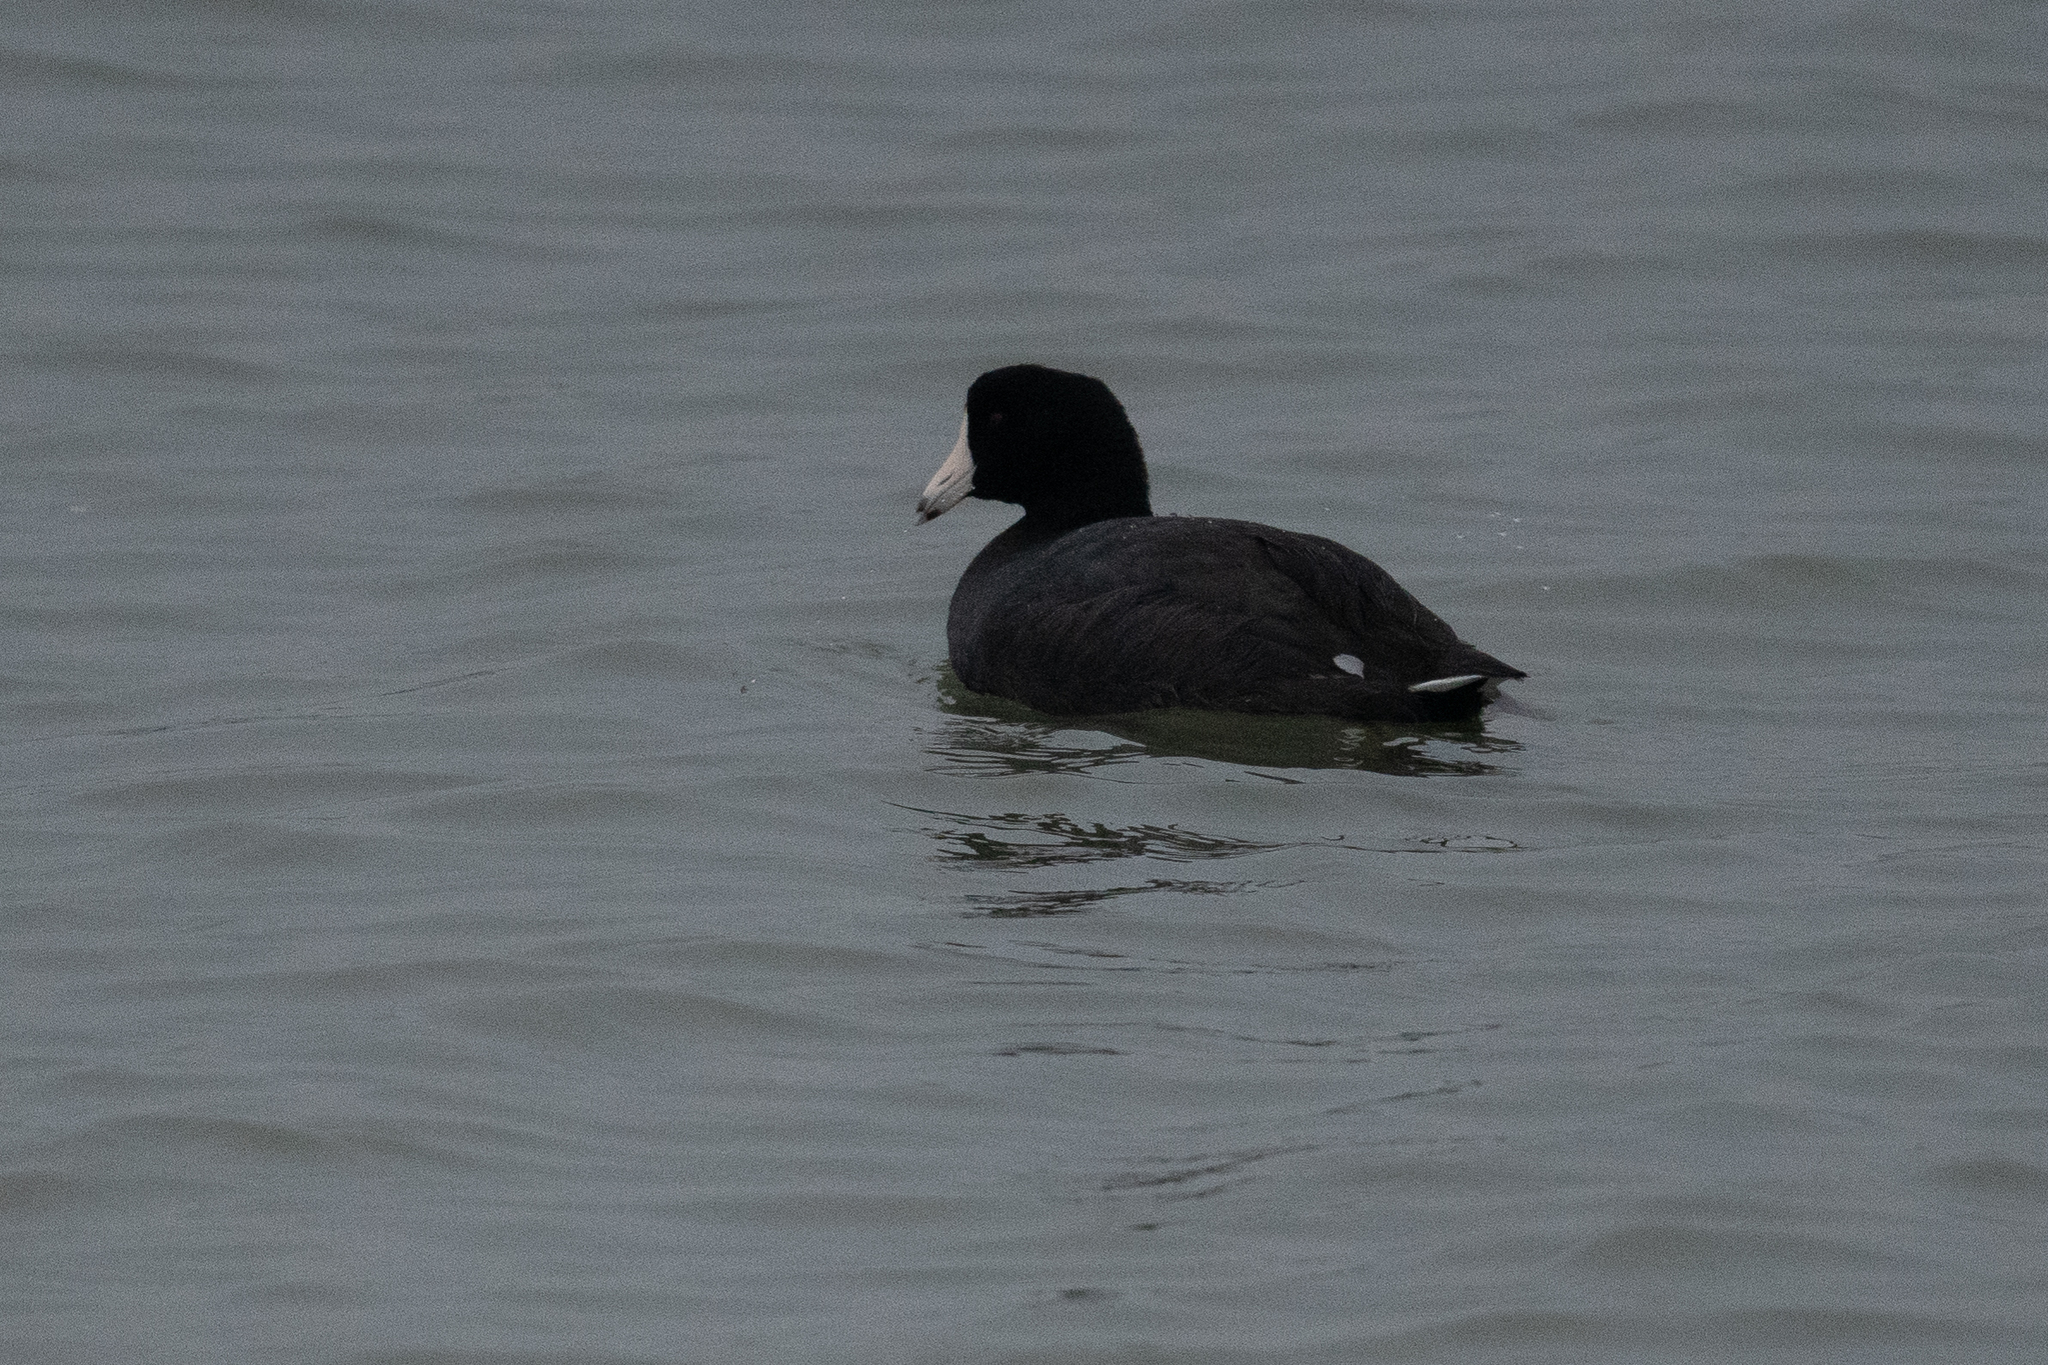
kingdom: Animalia
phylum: Chordata
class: Aves
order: Gruiformes
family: Rallidae
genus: Fulica
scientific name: Fulica americana
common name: American coot
